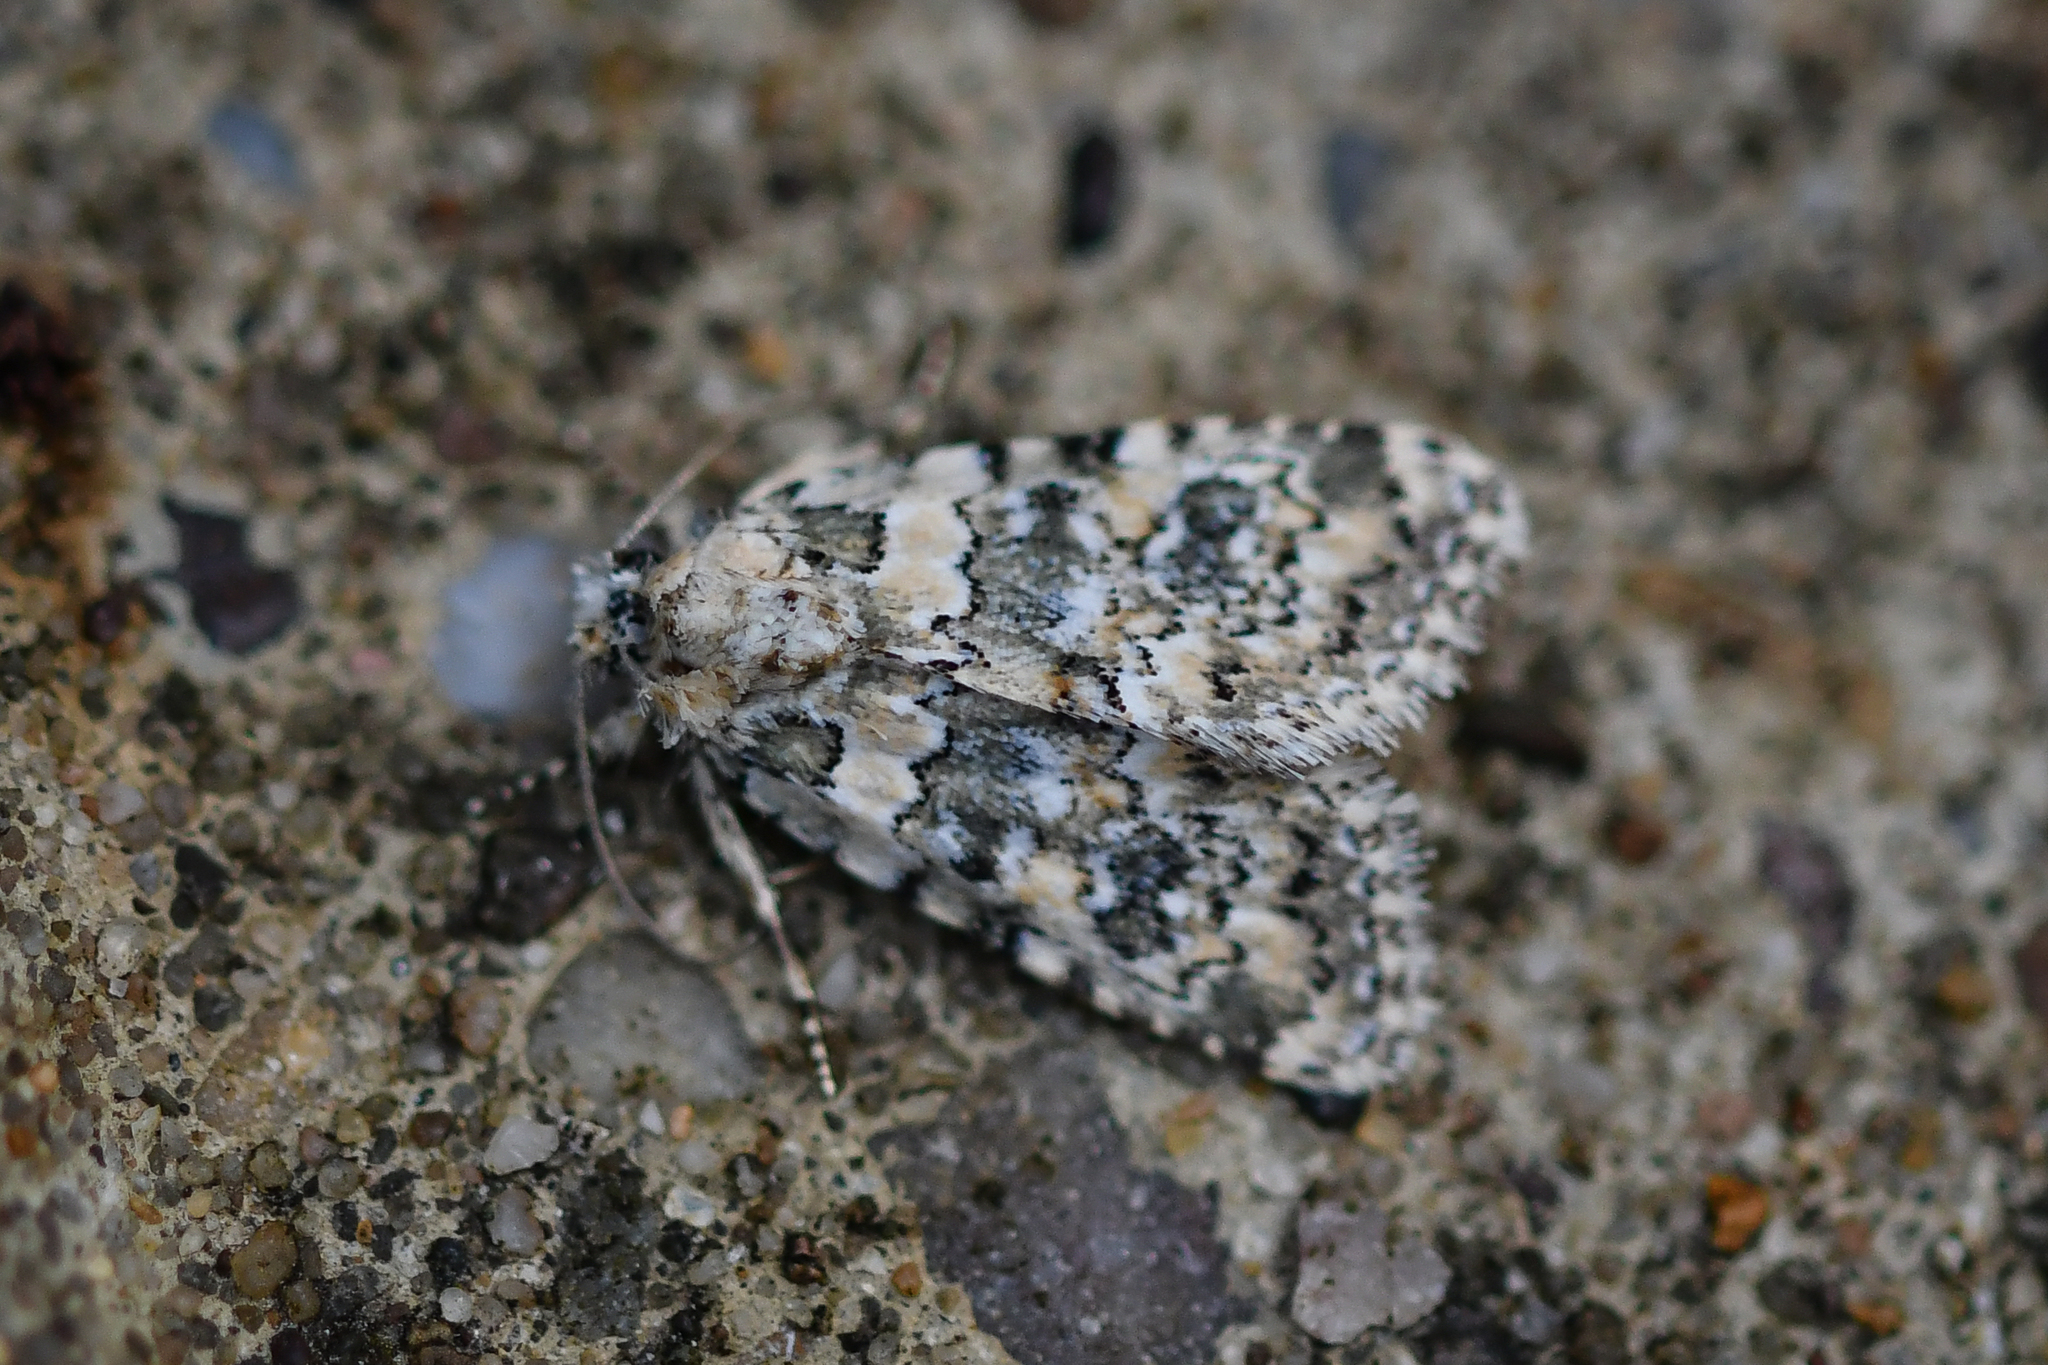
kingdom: Animalia
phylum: Arthropoda
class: Insecta
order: Lepidoptera
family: Noctuidae
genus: Bryophila
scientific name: Bryophila domestica
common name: Marbled beauty
